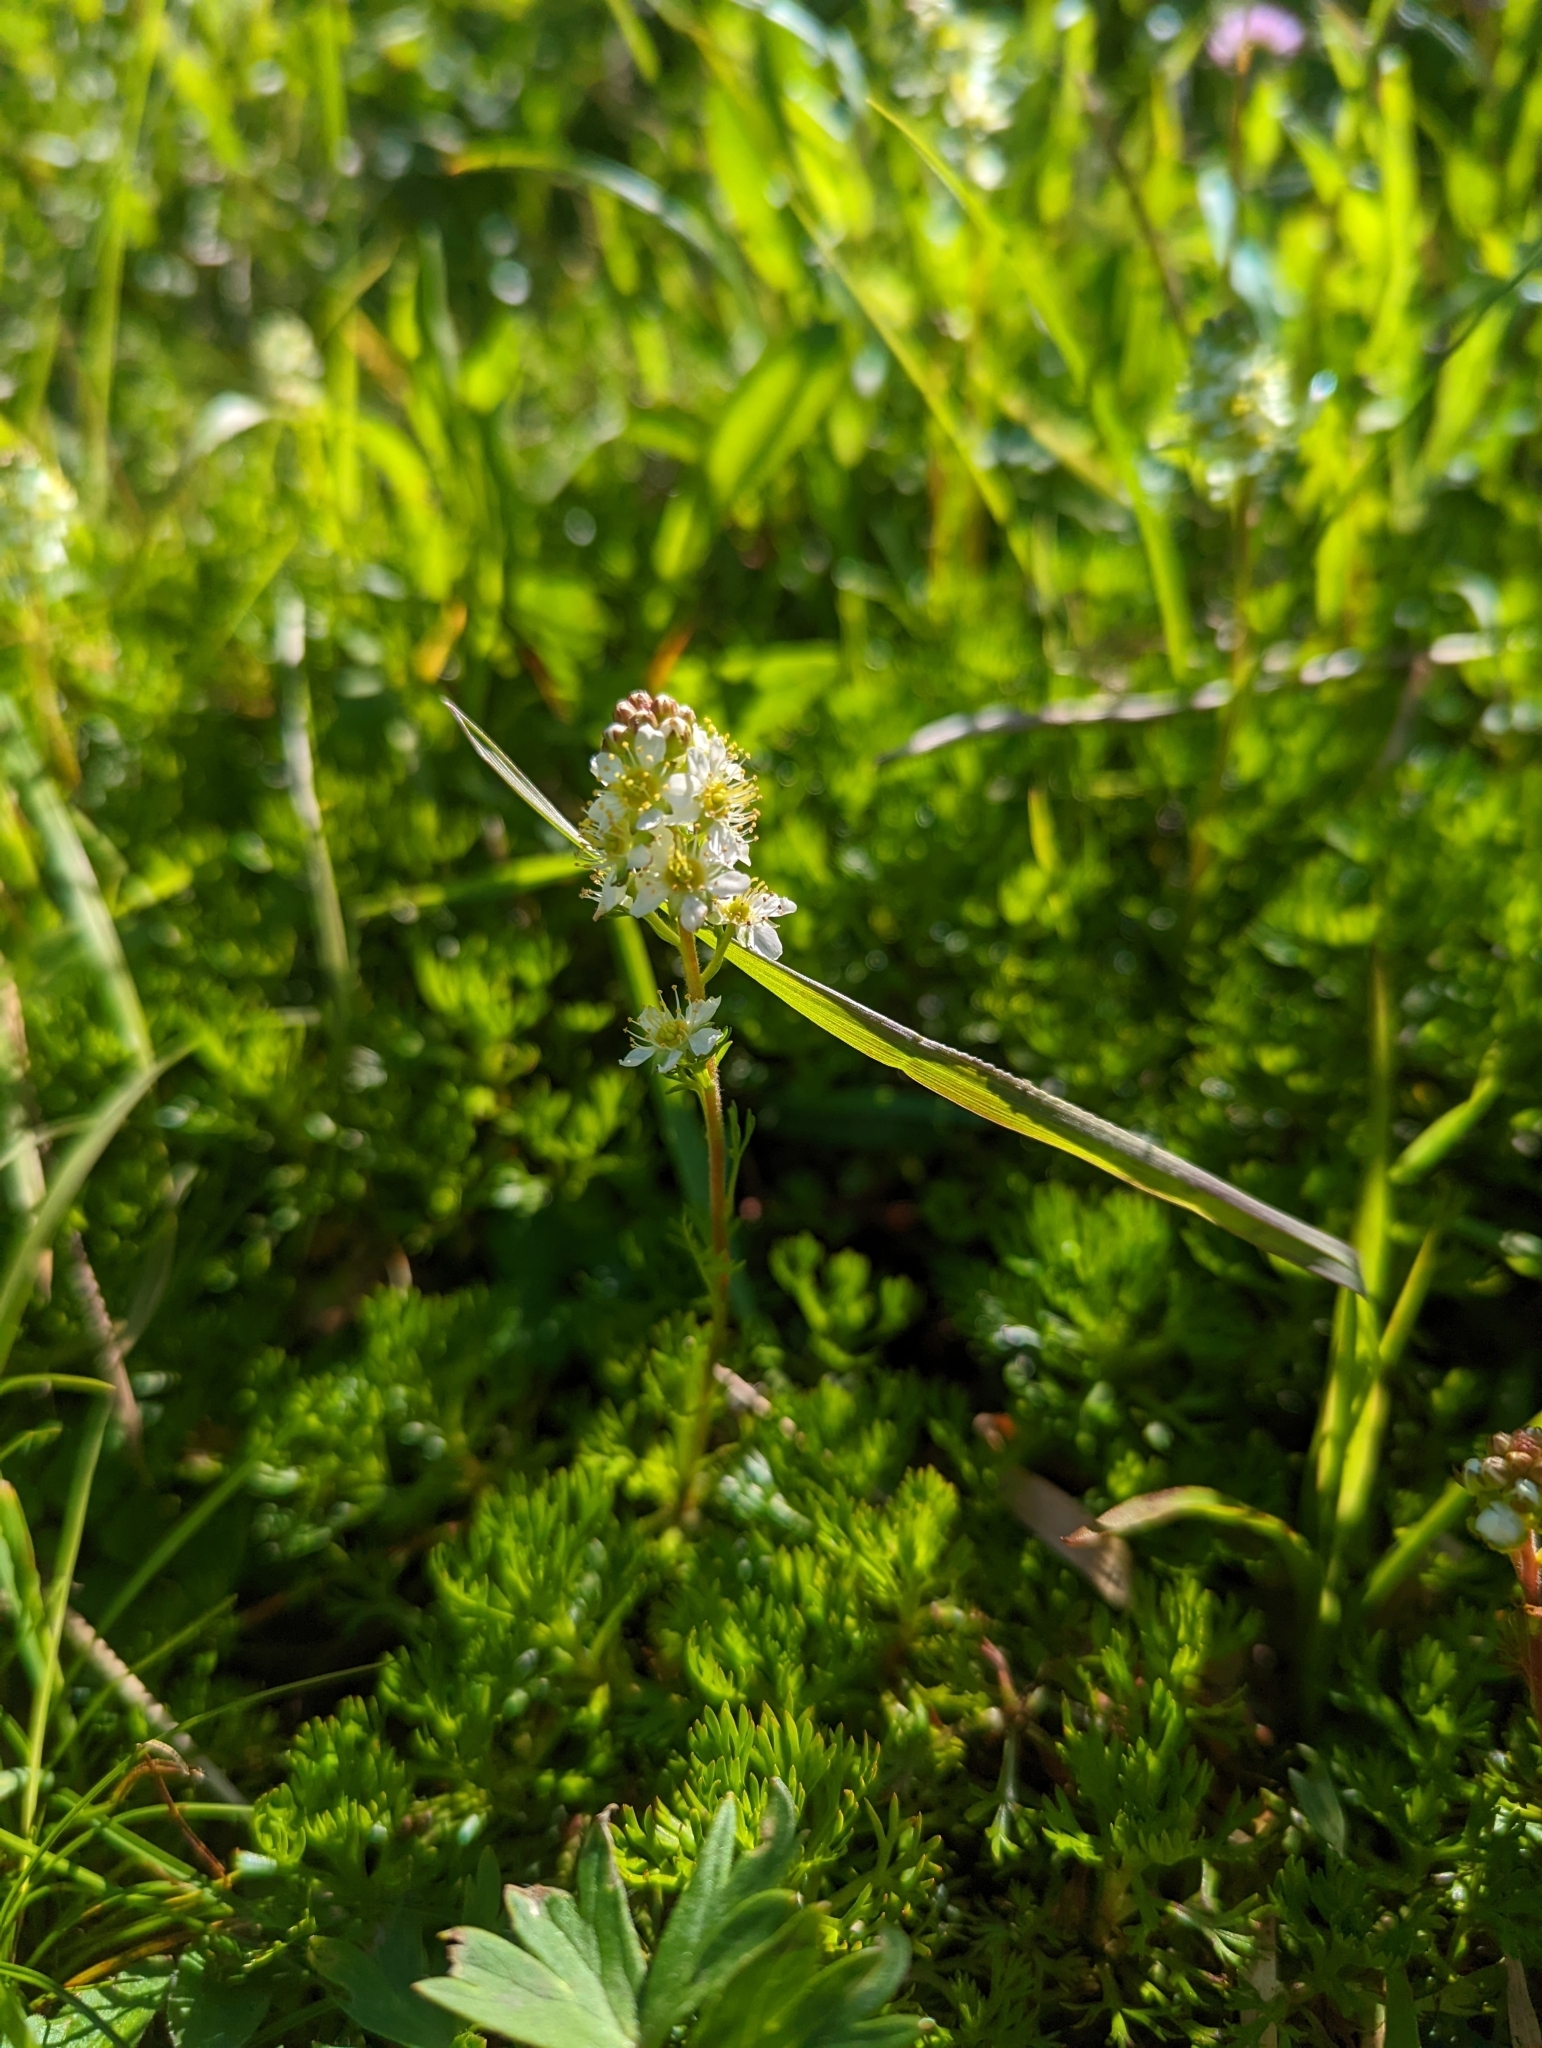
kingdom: Plantae
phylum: Tracheophyta
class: Magnoliopsida
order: Rosales
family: Rosaceae
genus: Luetkea
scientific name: Luetkea pectinata
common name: Partridgefoot
